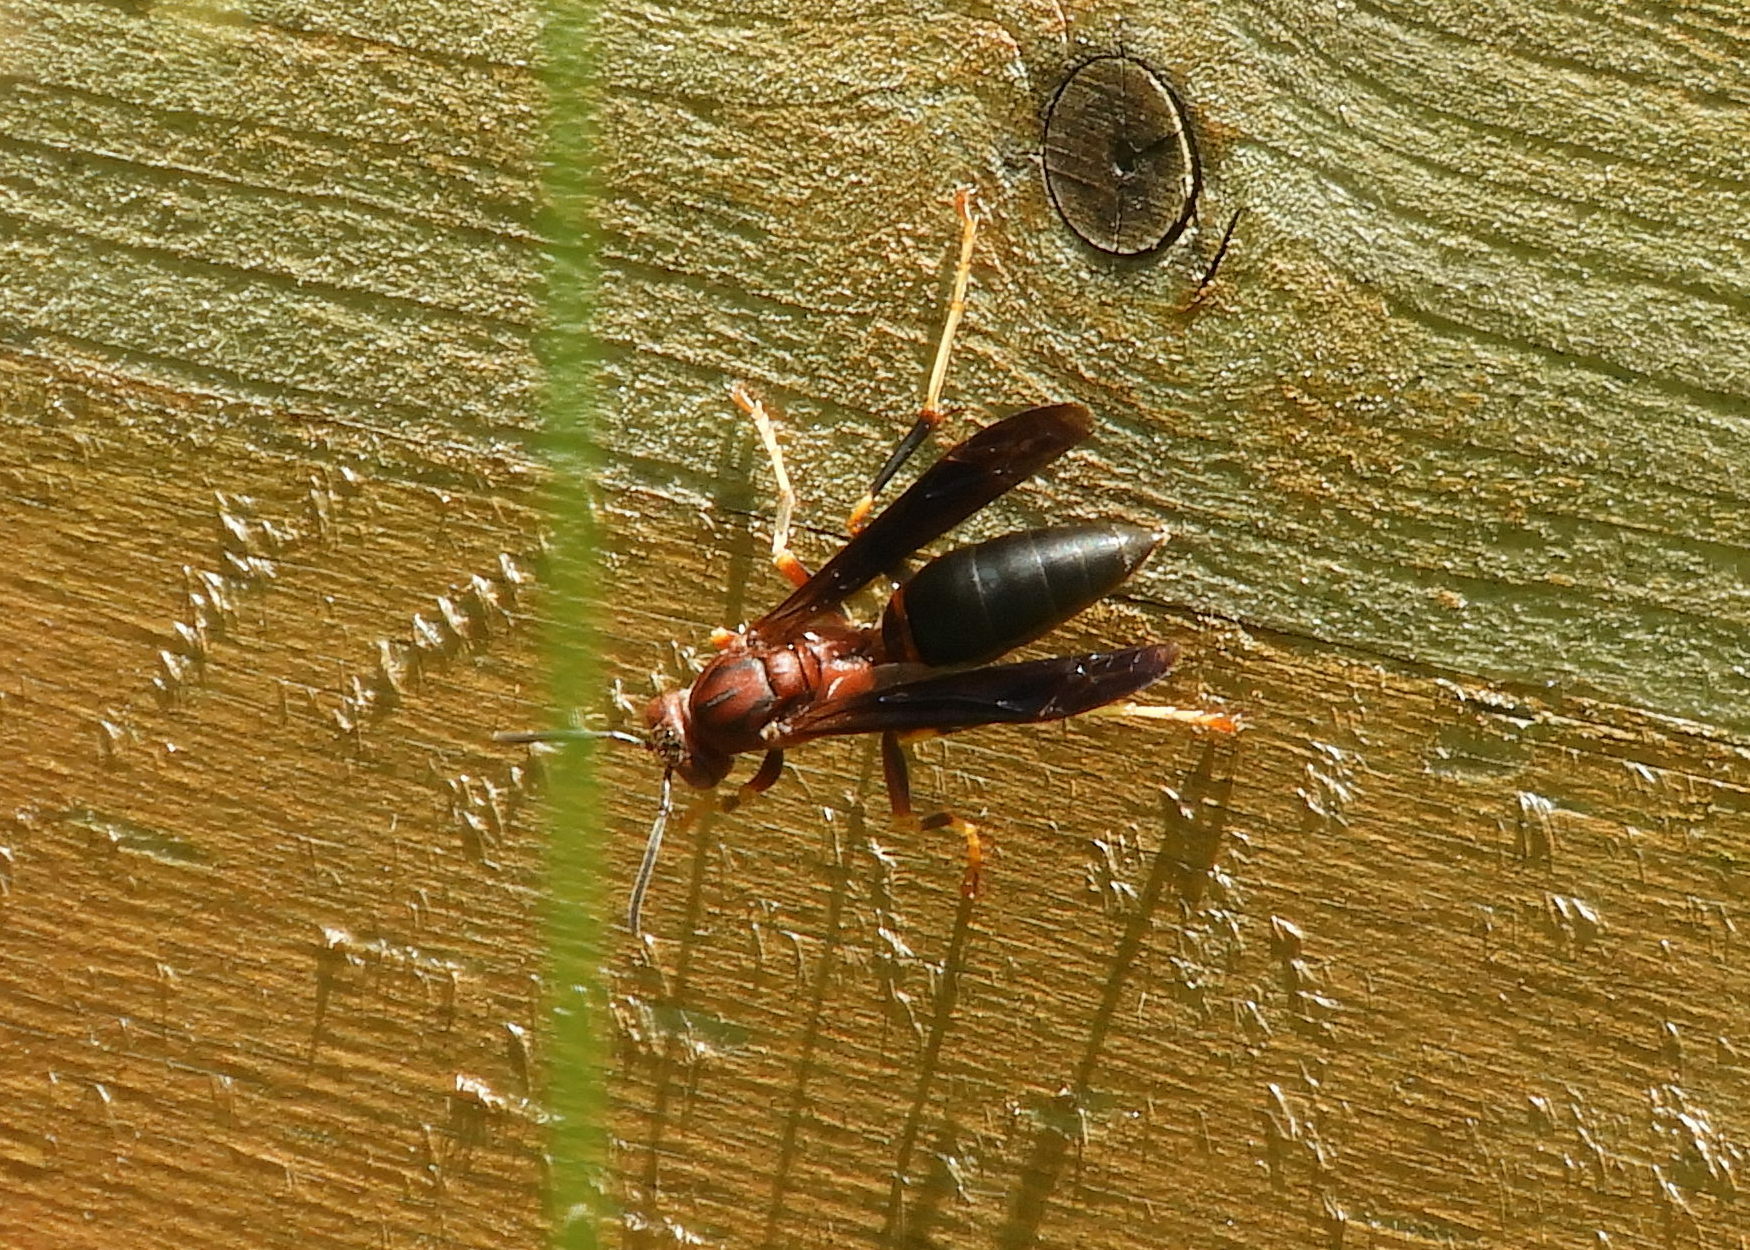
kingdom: Animalia
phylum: Arthropoda
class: Insecta
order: Hymenoptera
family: Eumenidae
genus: Polistes
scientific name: Polistes metricus
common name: Metric paper wasp
